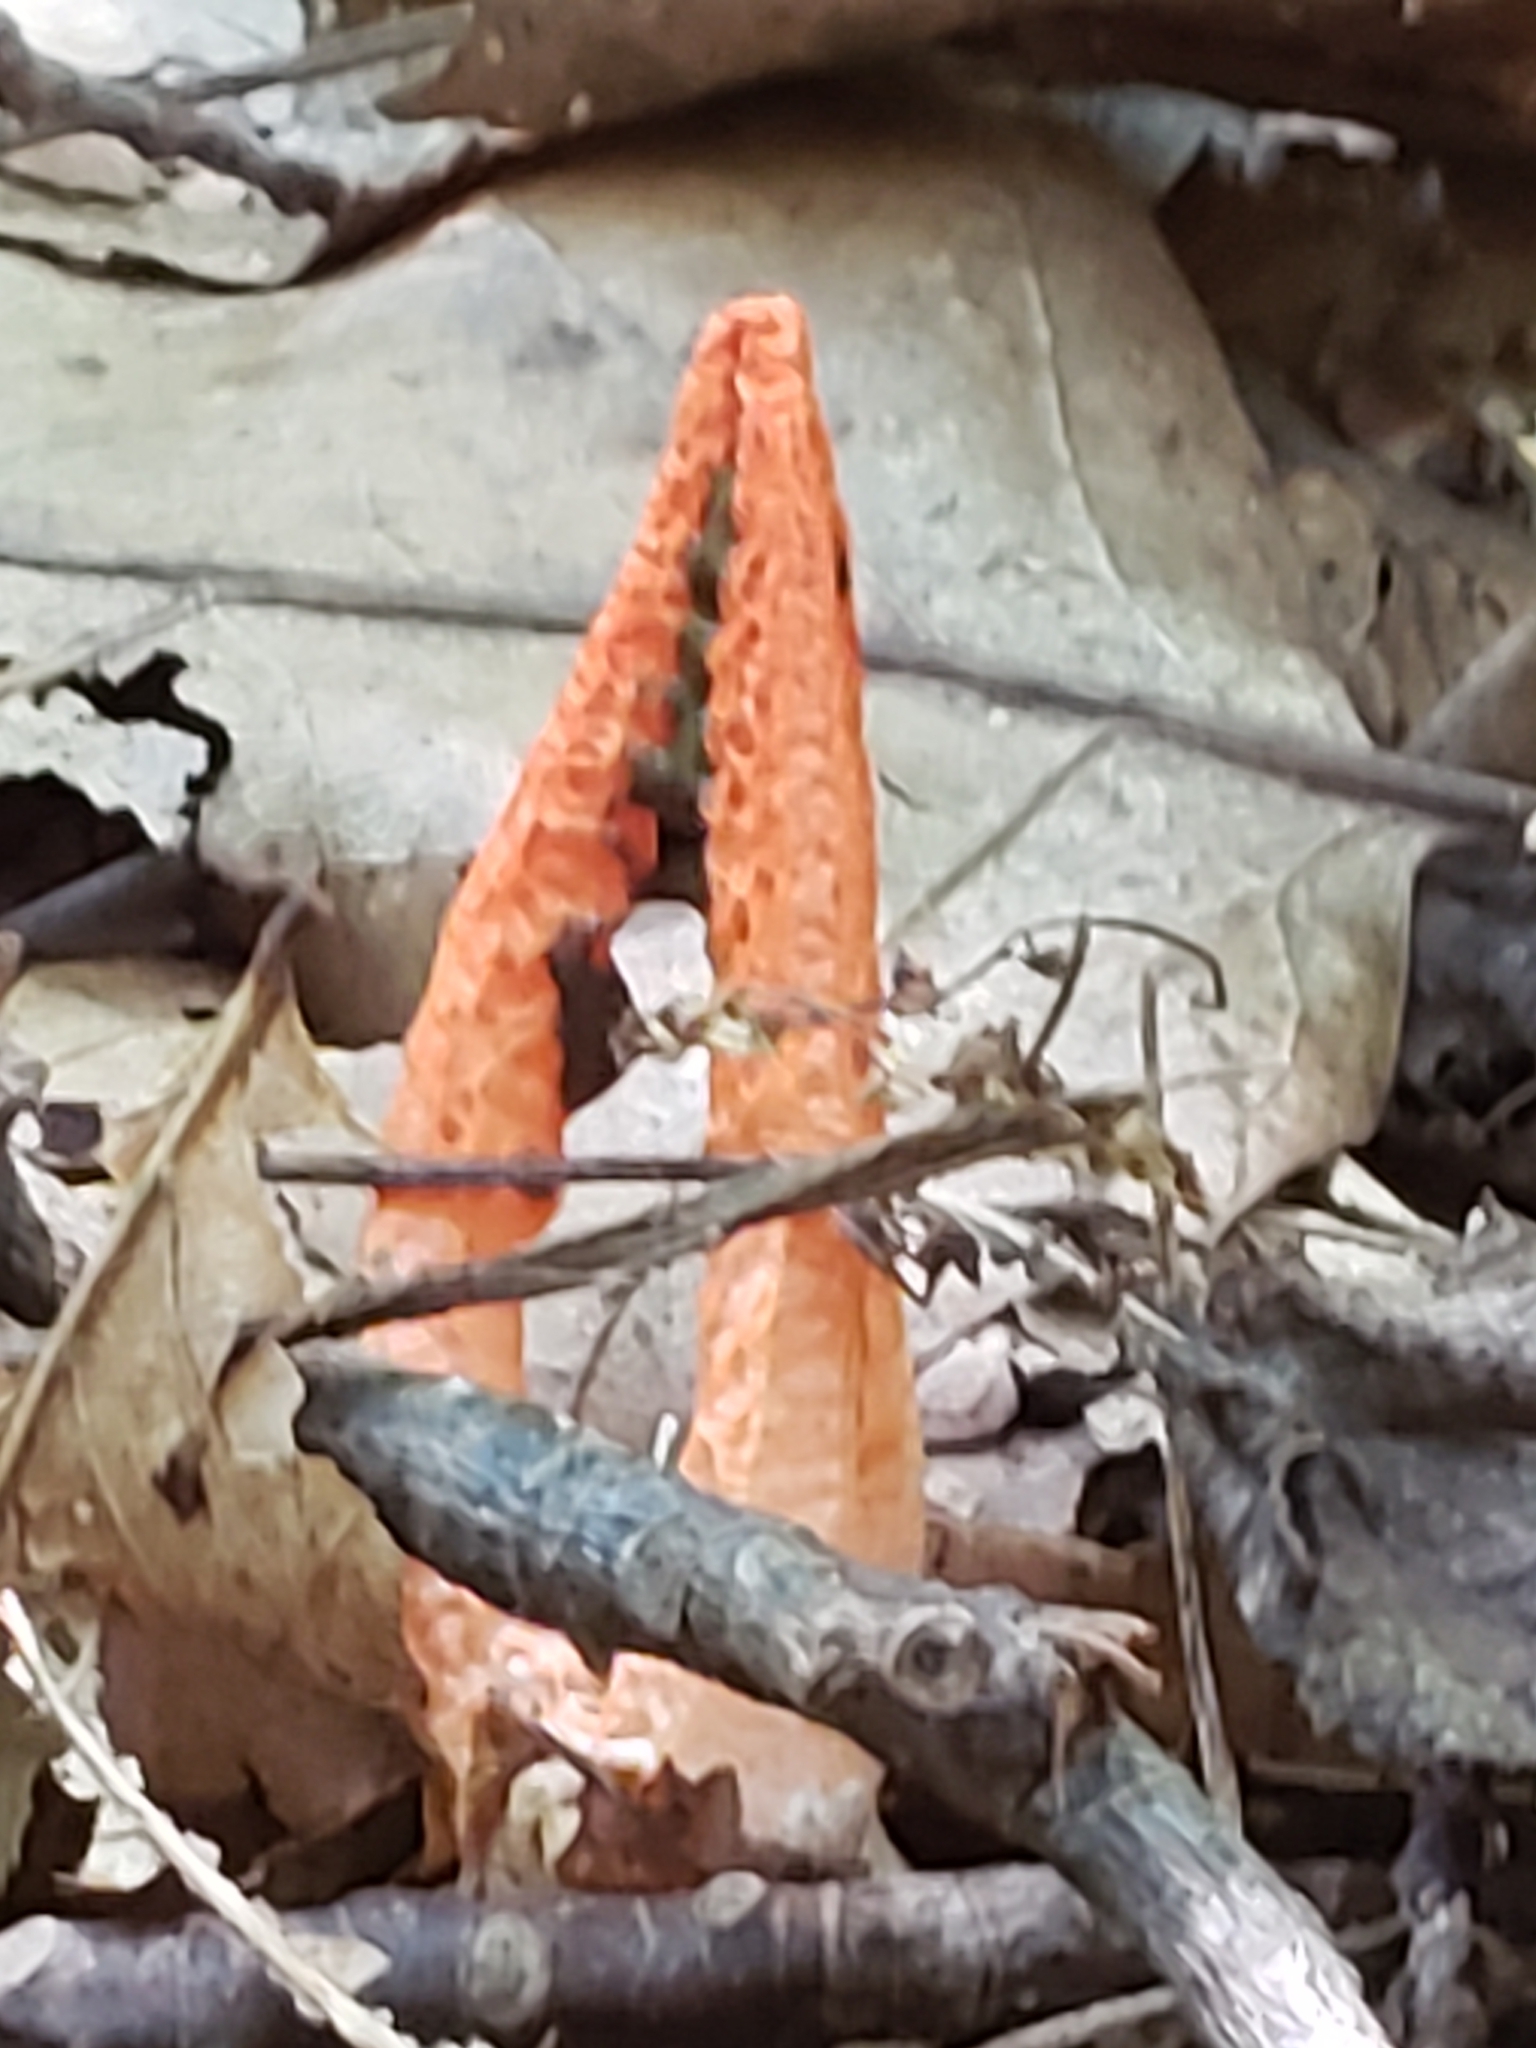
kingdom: Fungi
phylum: Basidiomycota
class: Agaricomycetes
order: Phallales
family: Phallaceae
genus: Pseudocolus
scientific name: Pseudocolus fusiformis
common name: Stinky squid
